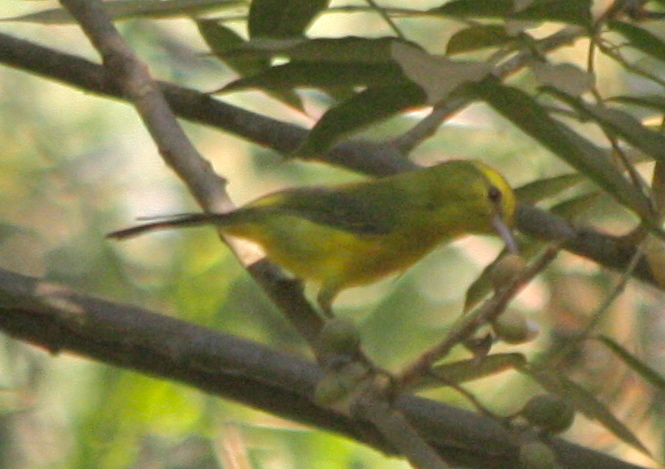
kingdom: Animalia
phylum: Chordata
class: Aves
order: Passeriformes
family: Vireonidae
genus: Vireo
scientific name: Vireo hypochryseus
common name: Golden vireo
